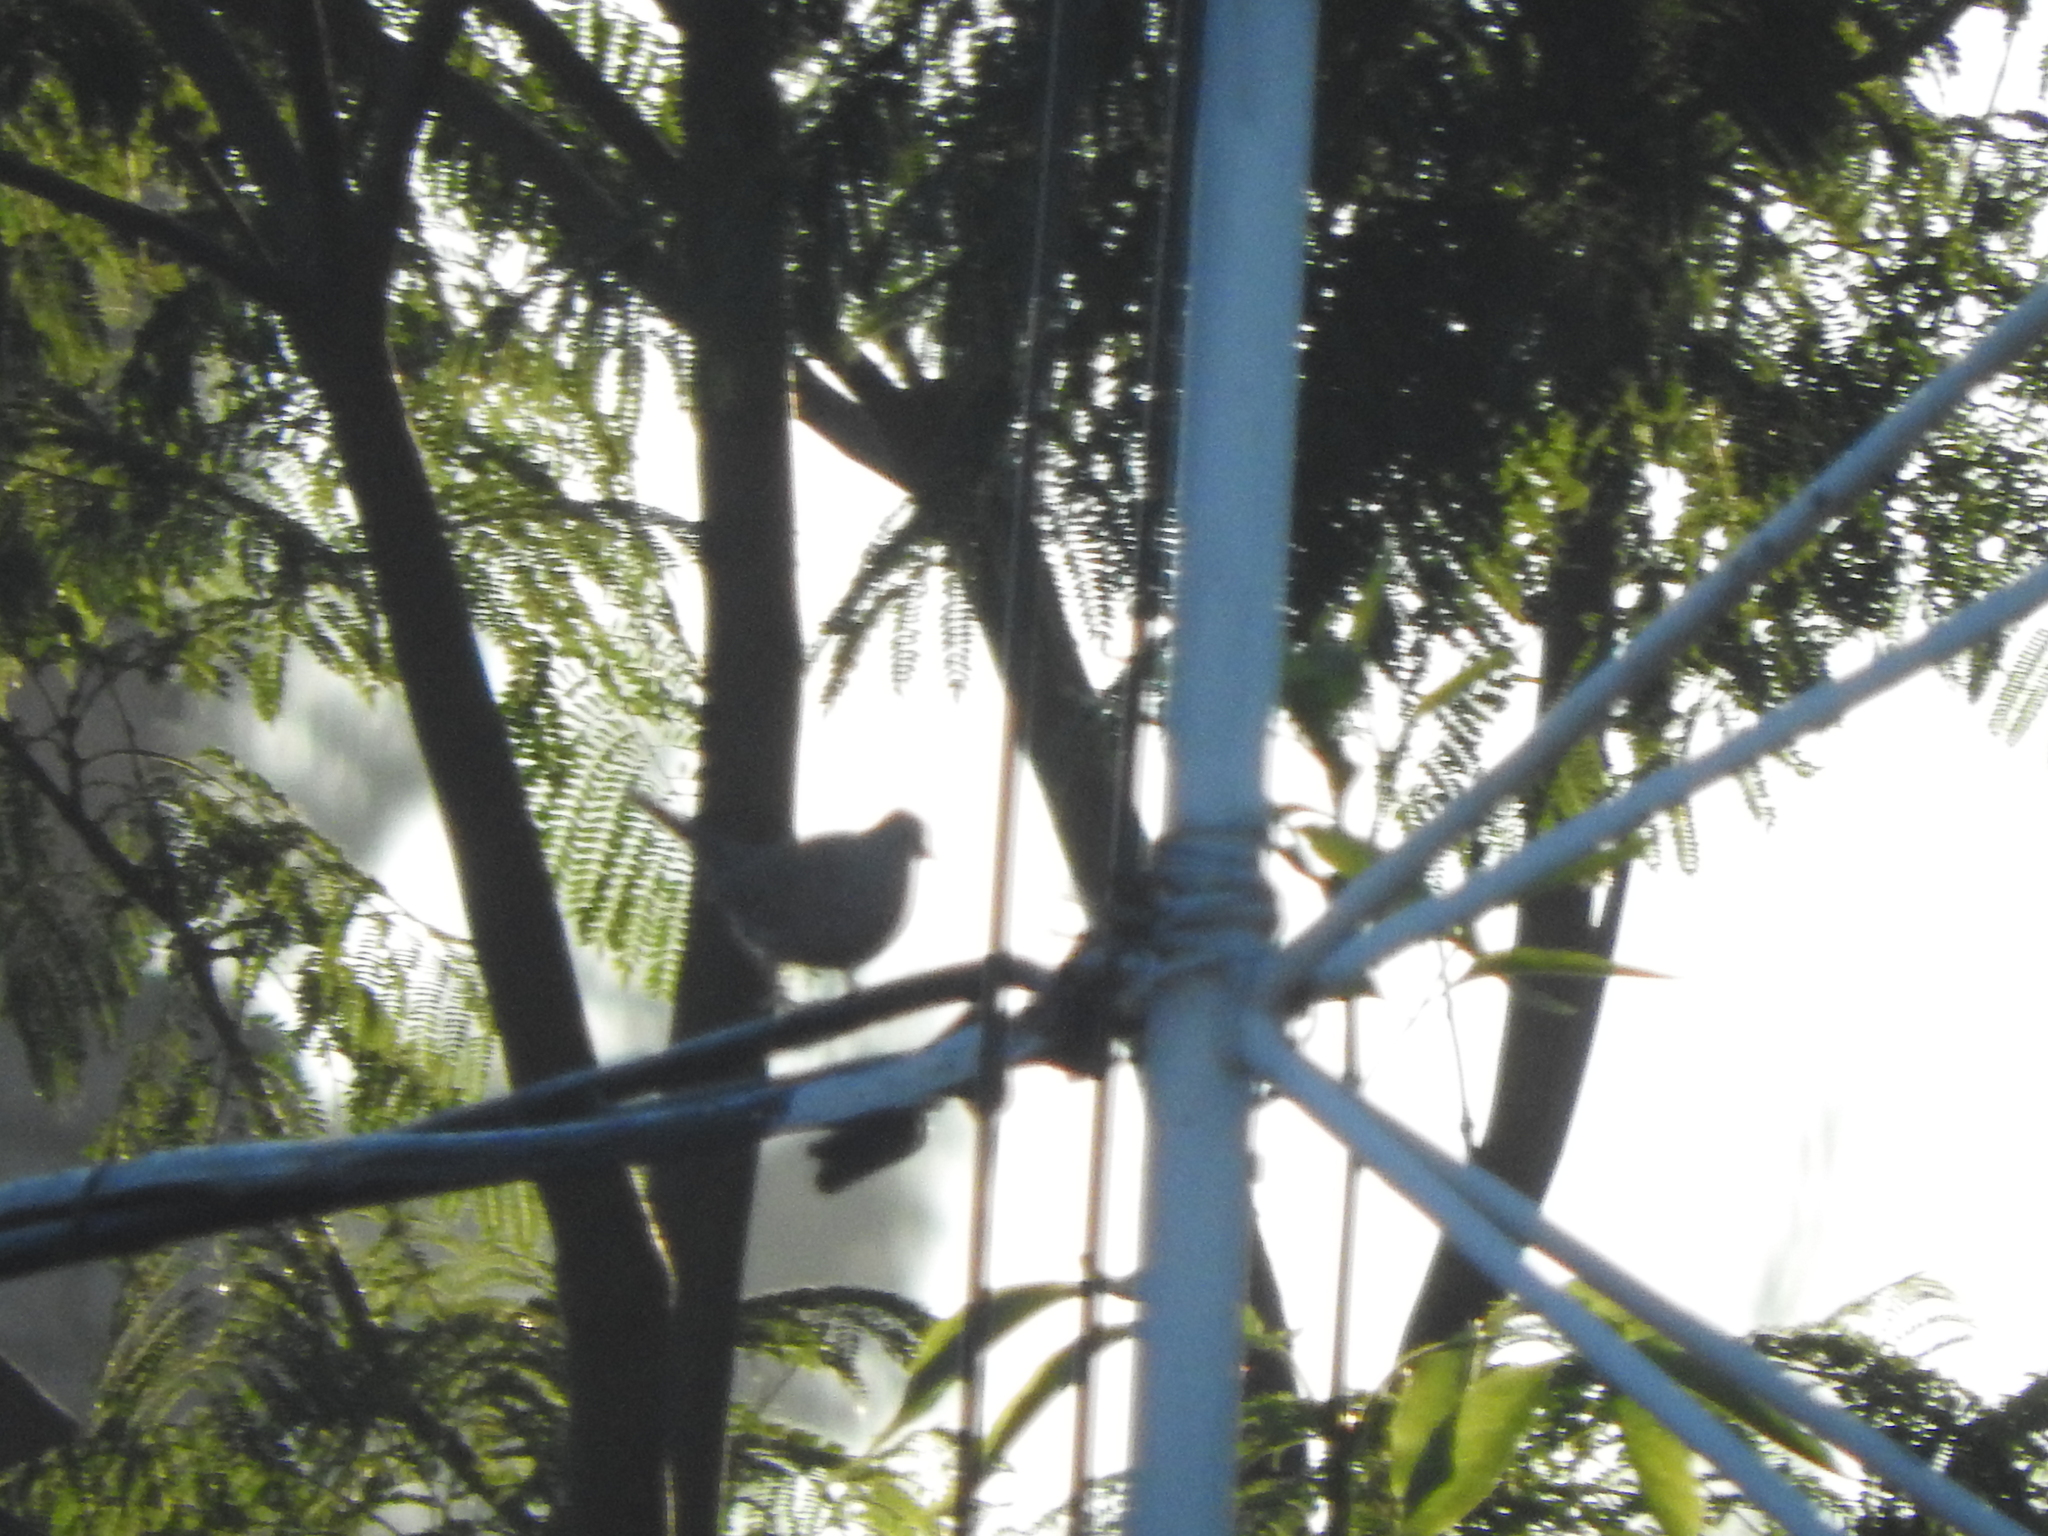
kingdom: Animalia
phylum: Chordata
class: Aves
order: Columbiformes
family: Columbidae
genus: Columbina
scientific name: Columbina inca
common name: Inca dove
